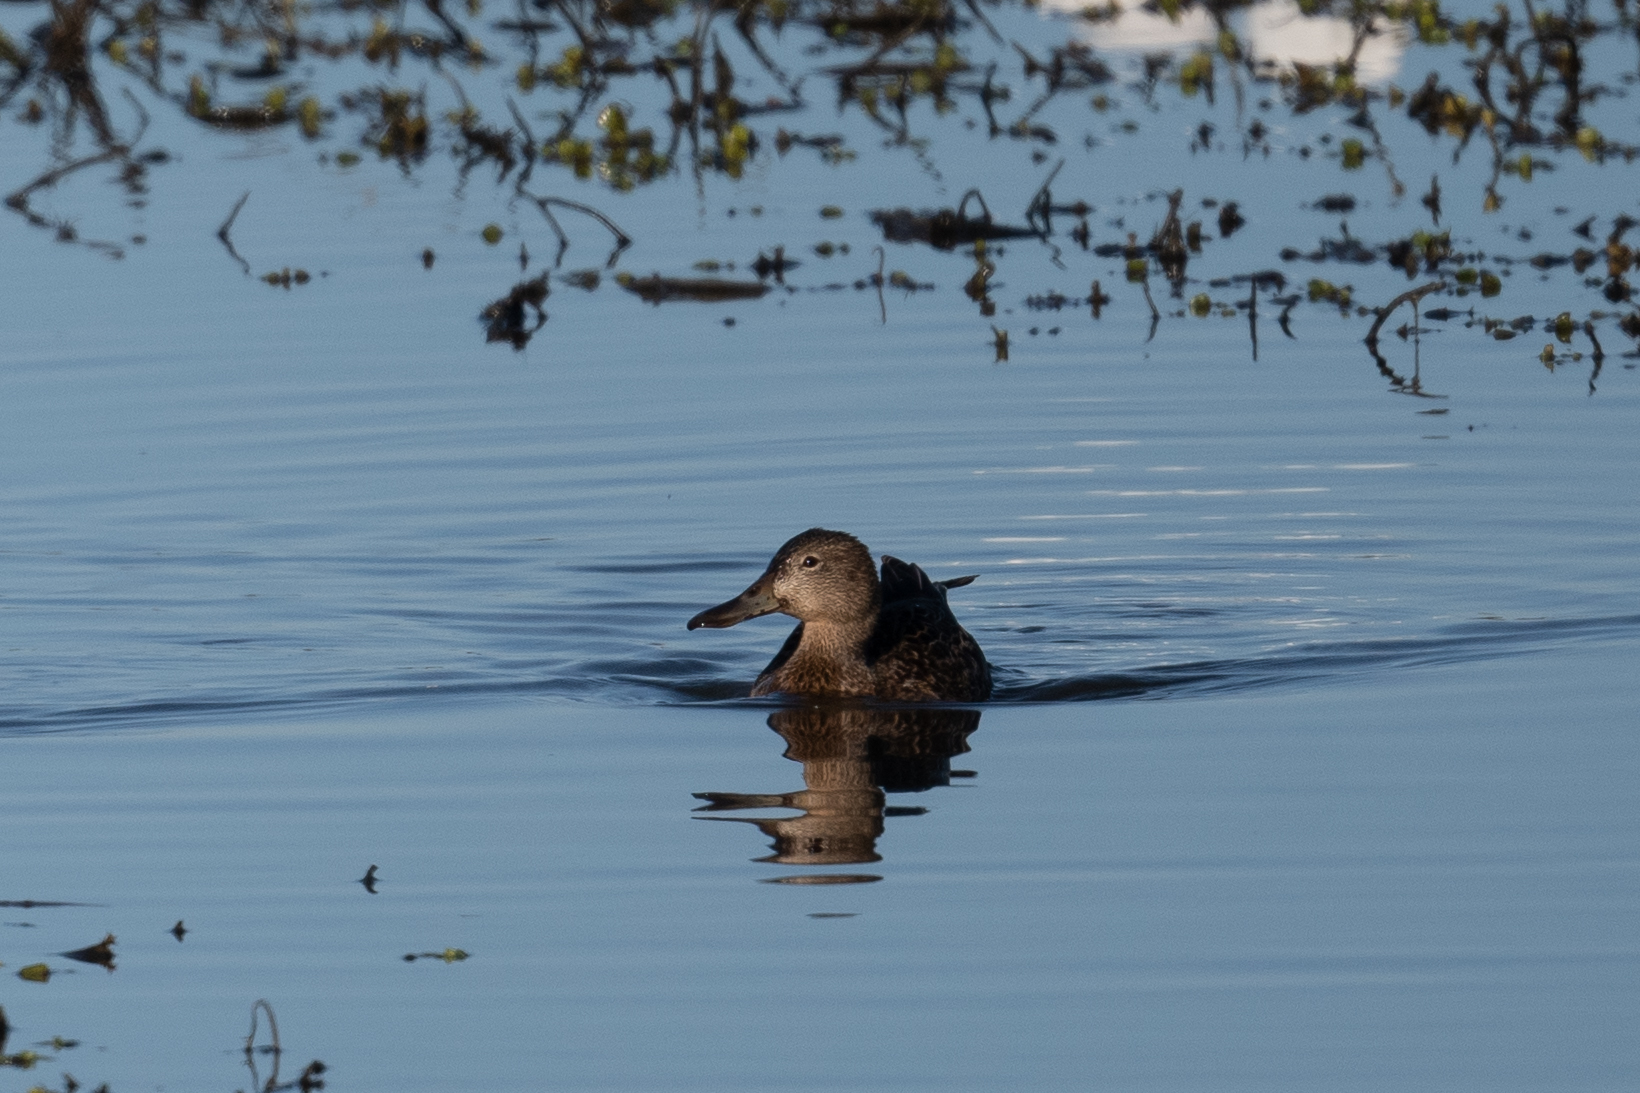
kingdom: Animalia
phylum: Chordata
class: Aves
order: Anseriformes
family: Anatidae
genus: Spatula
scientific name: Spatula cyanoptera
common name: Cinnamon teal
